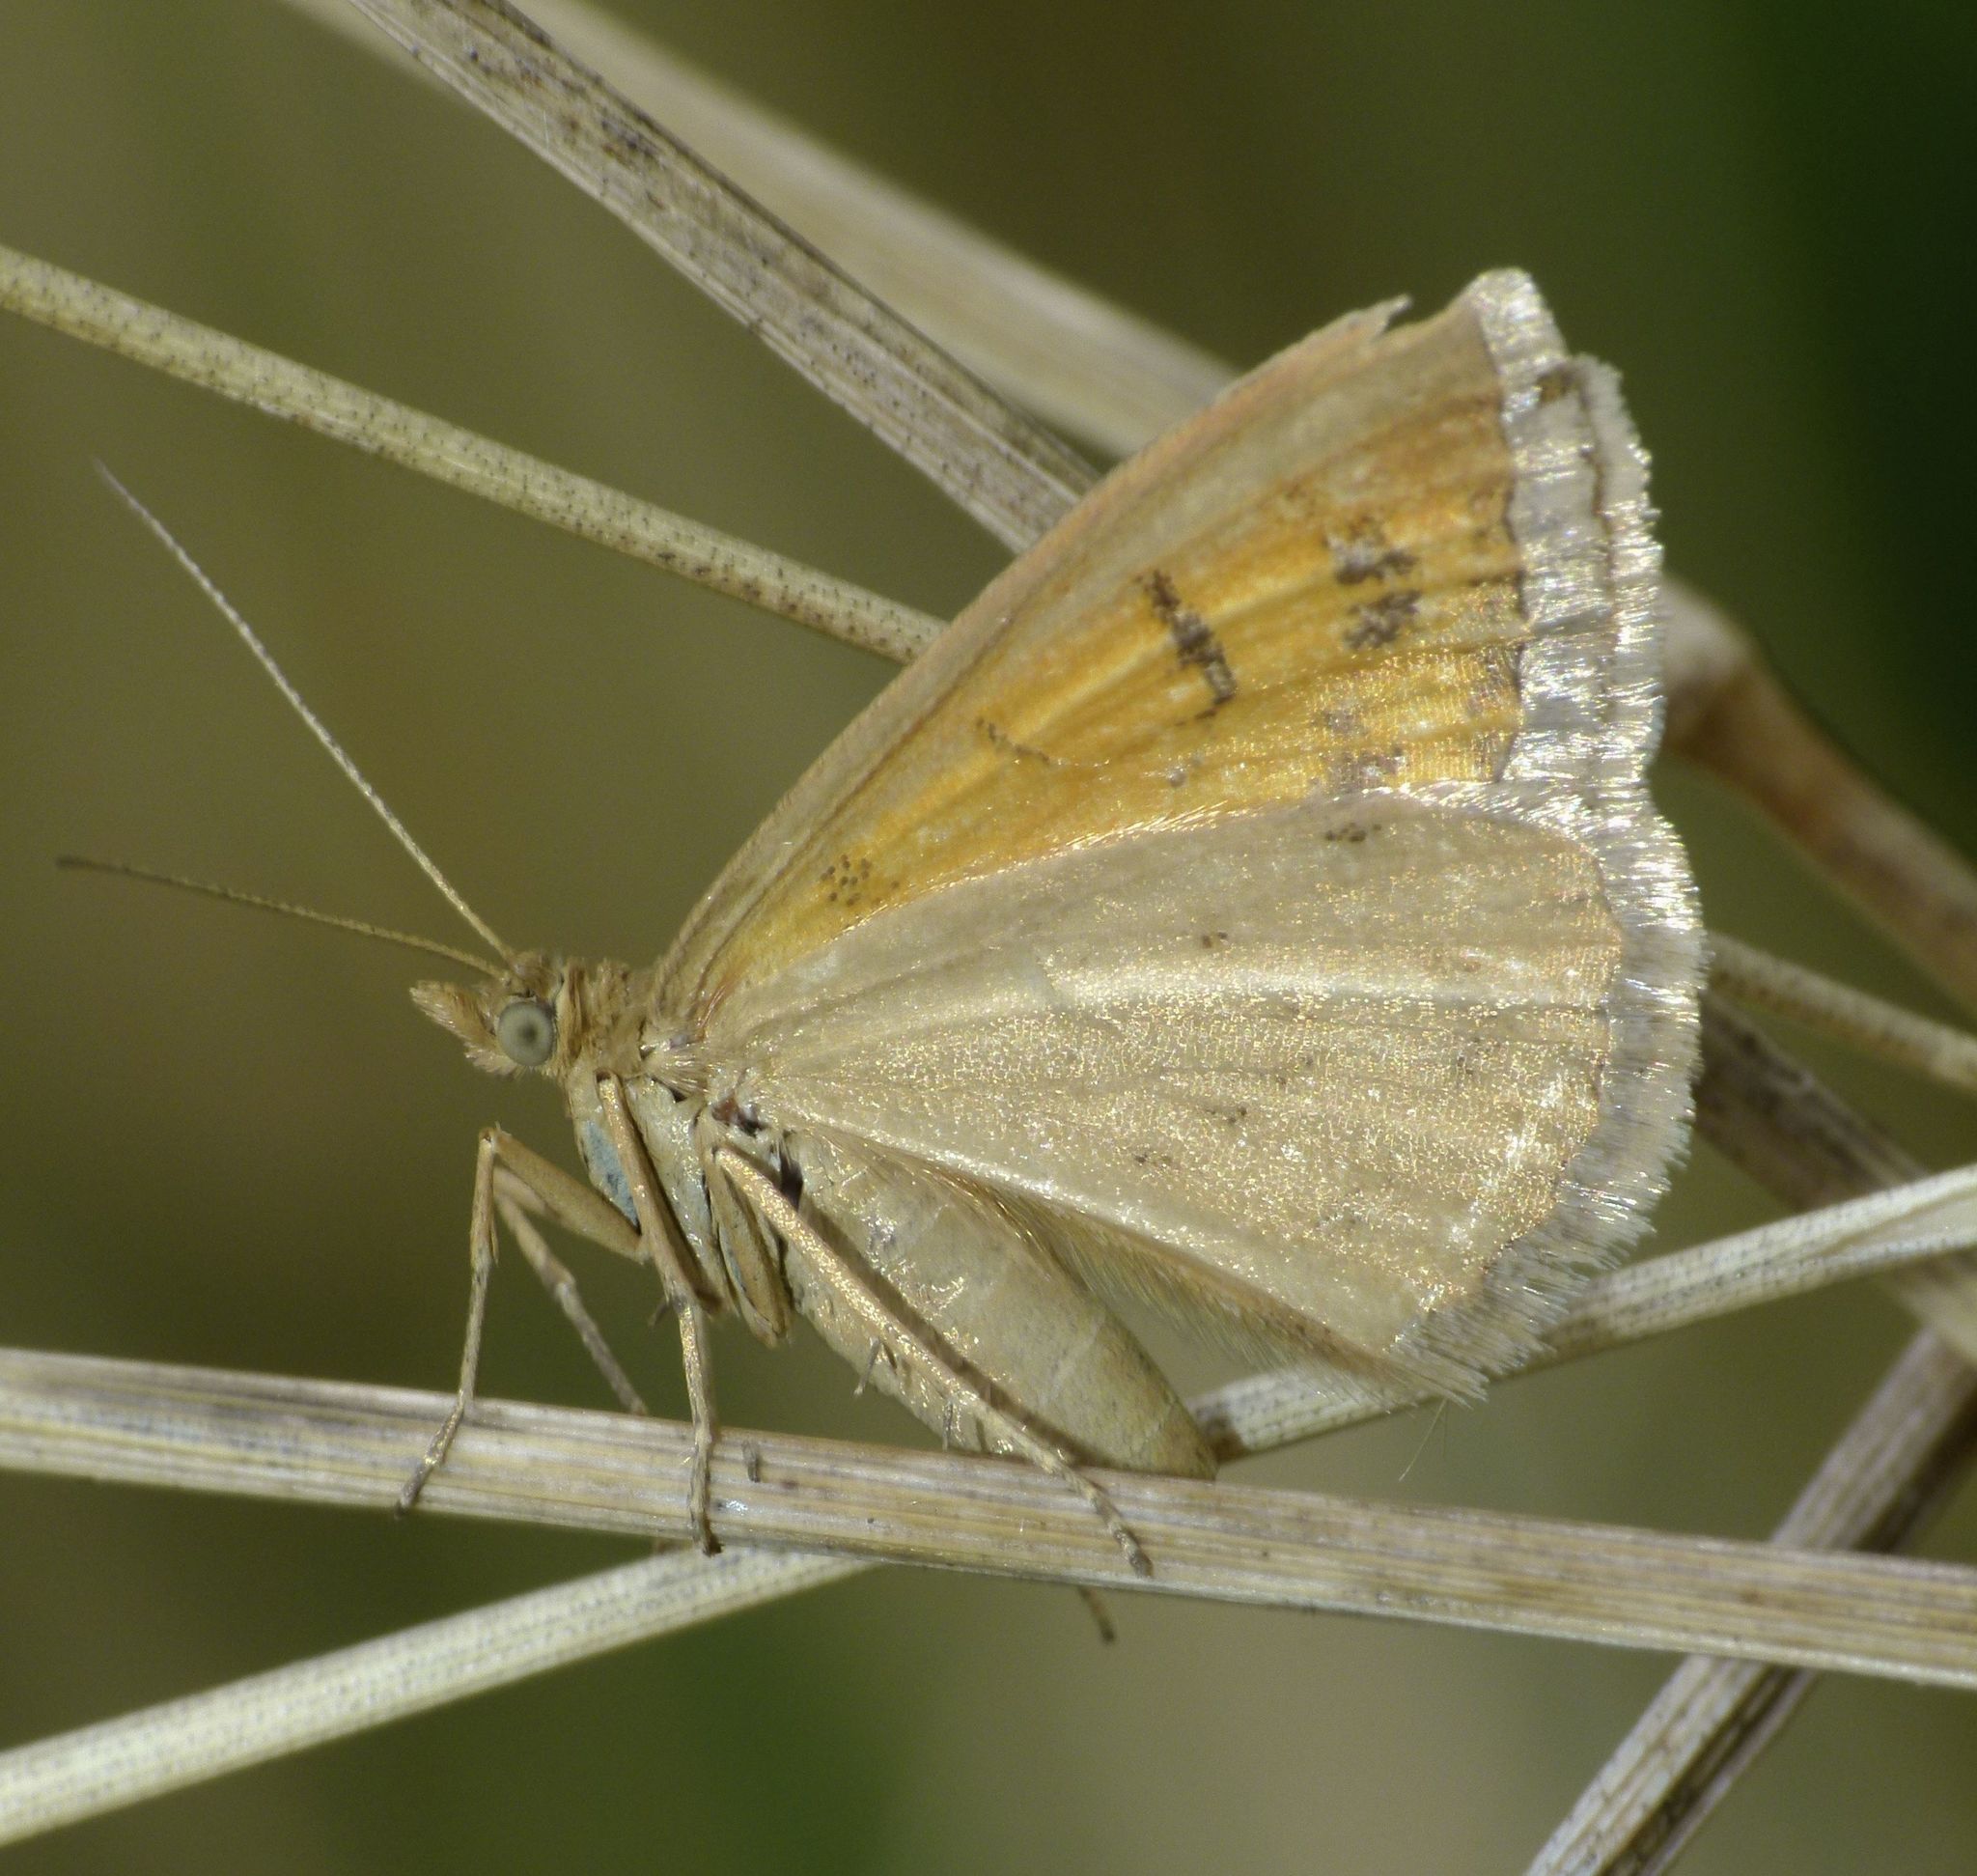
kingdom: Animalia
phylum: Arthropoda
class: Insecta
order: Lepidoptera
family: Geometridae
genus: Asaphodes
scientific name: Asaphodes abrogata
